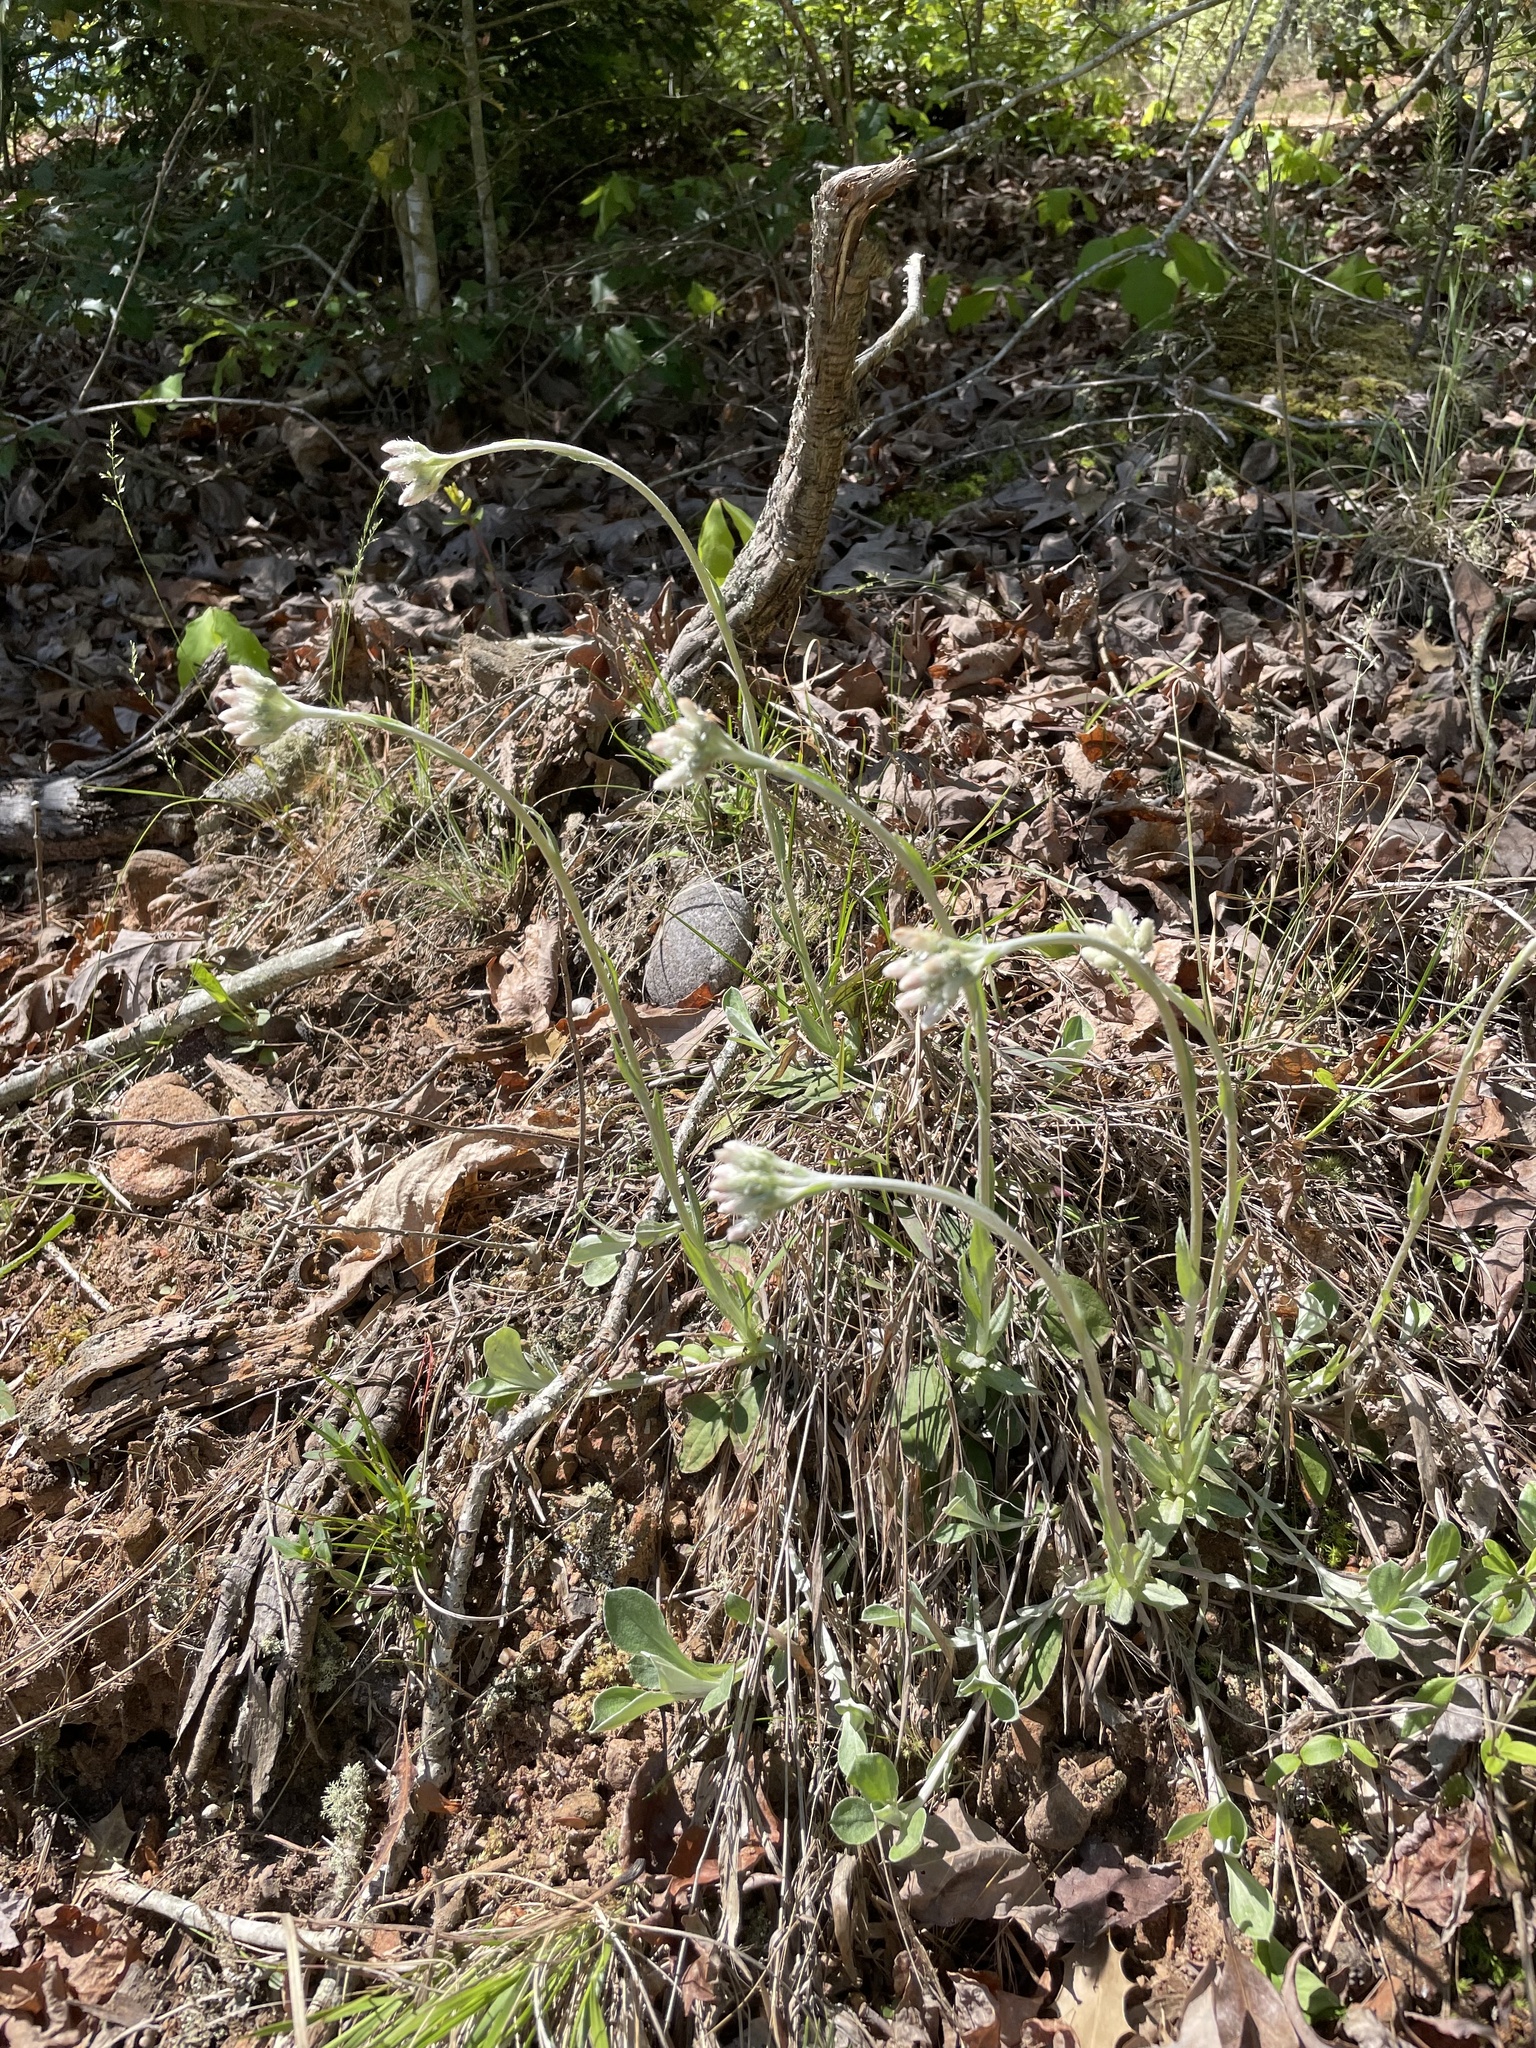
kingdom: Plantae
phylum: Tracheophyta
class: Magnoliopsida
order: Asterales
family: Asteraceae
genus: Antennaria
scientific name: Antennaria parlinii
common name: Parlin's pussytoes
